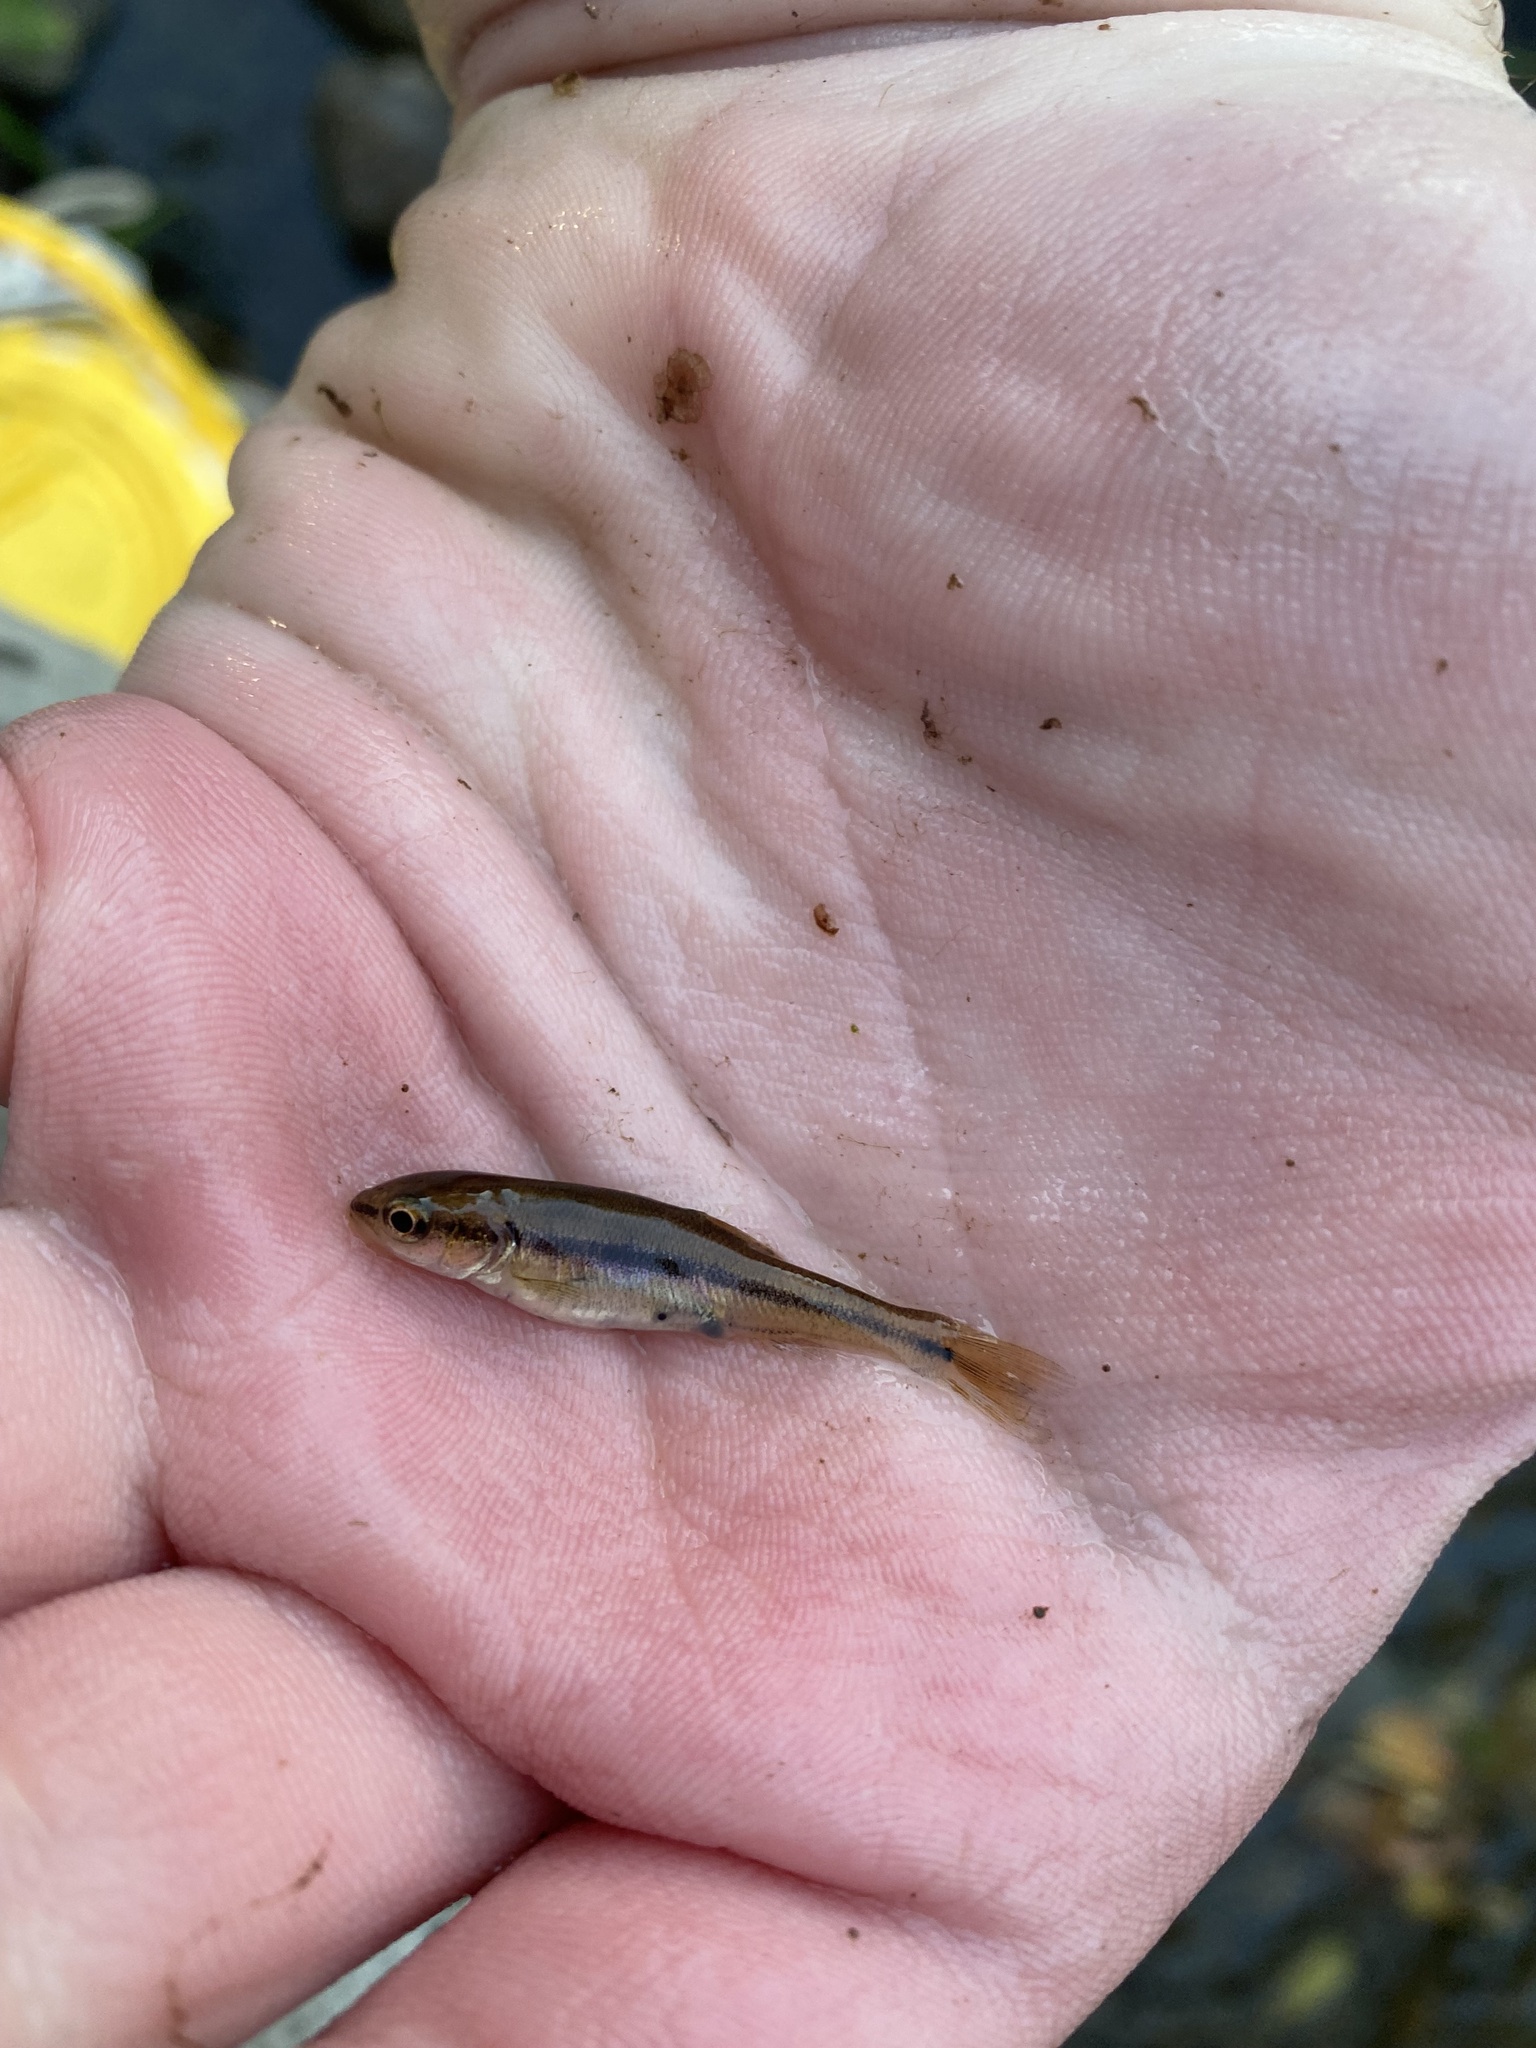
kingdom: Animalia
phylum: Chordata
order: Cypriniformes
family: Cyprinidae
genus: Semotilus
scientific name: Semotilus atromaculatus
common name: Creek chub
